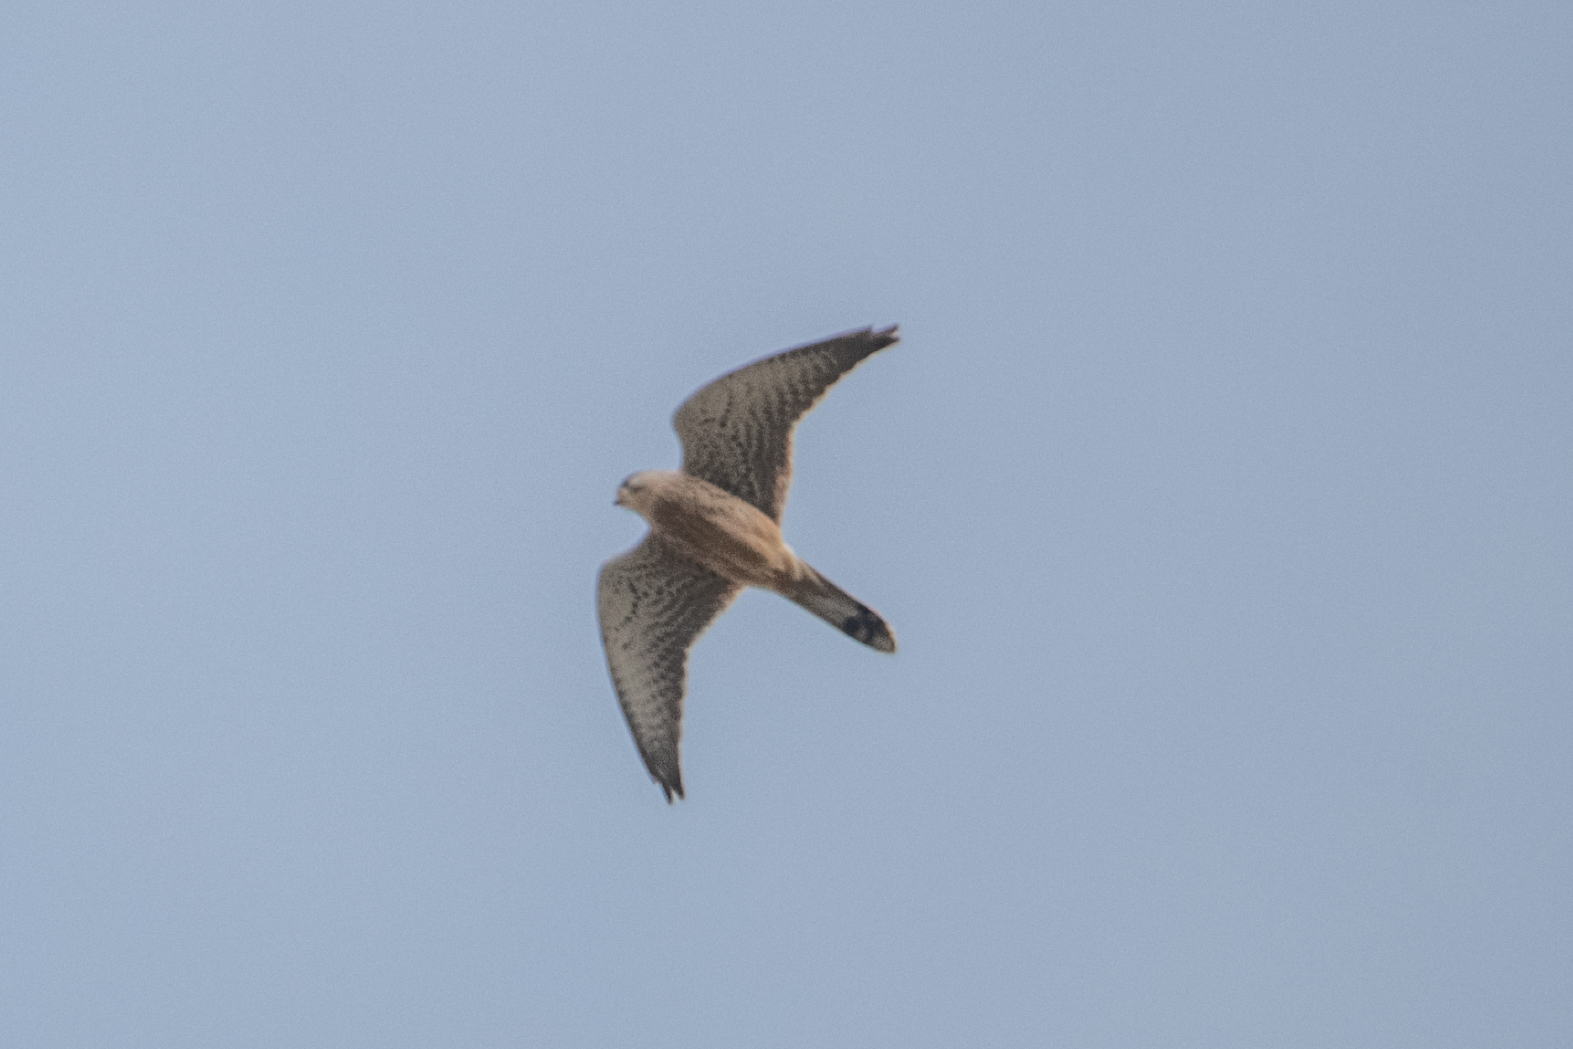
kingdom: Animalia
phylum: Chordata
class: Aves
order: Falconiformes
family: Falconidae
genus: Falco
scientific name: Falco tinnunculus
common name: Common kestrel
